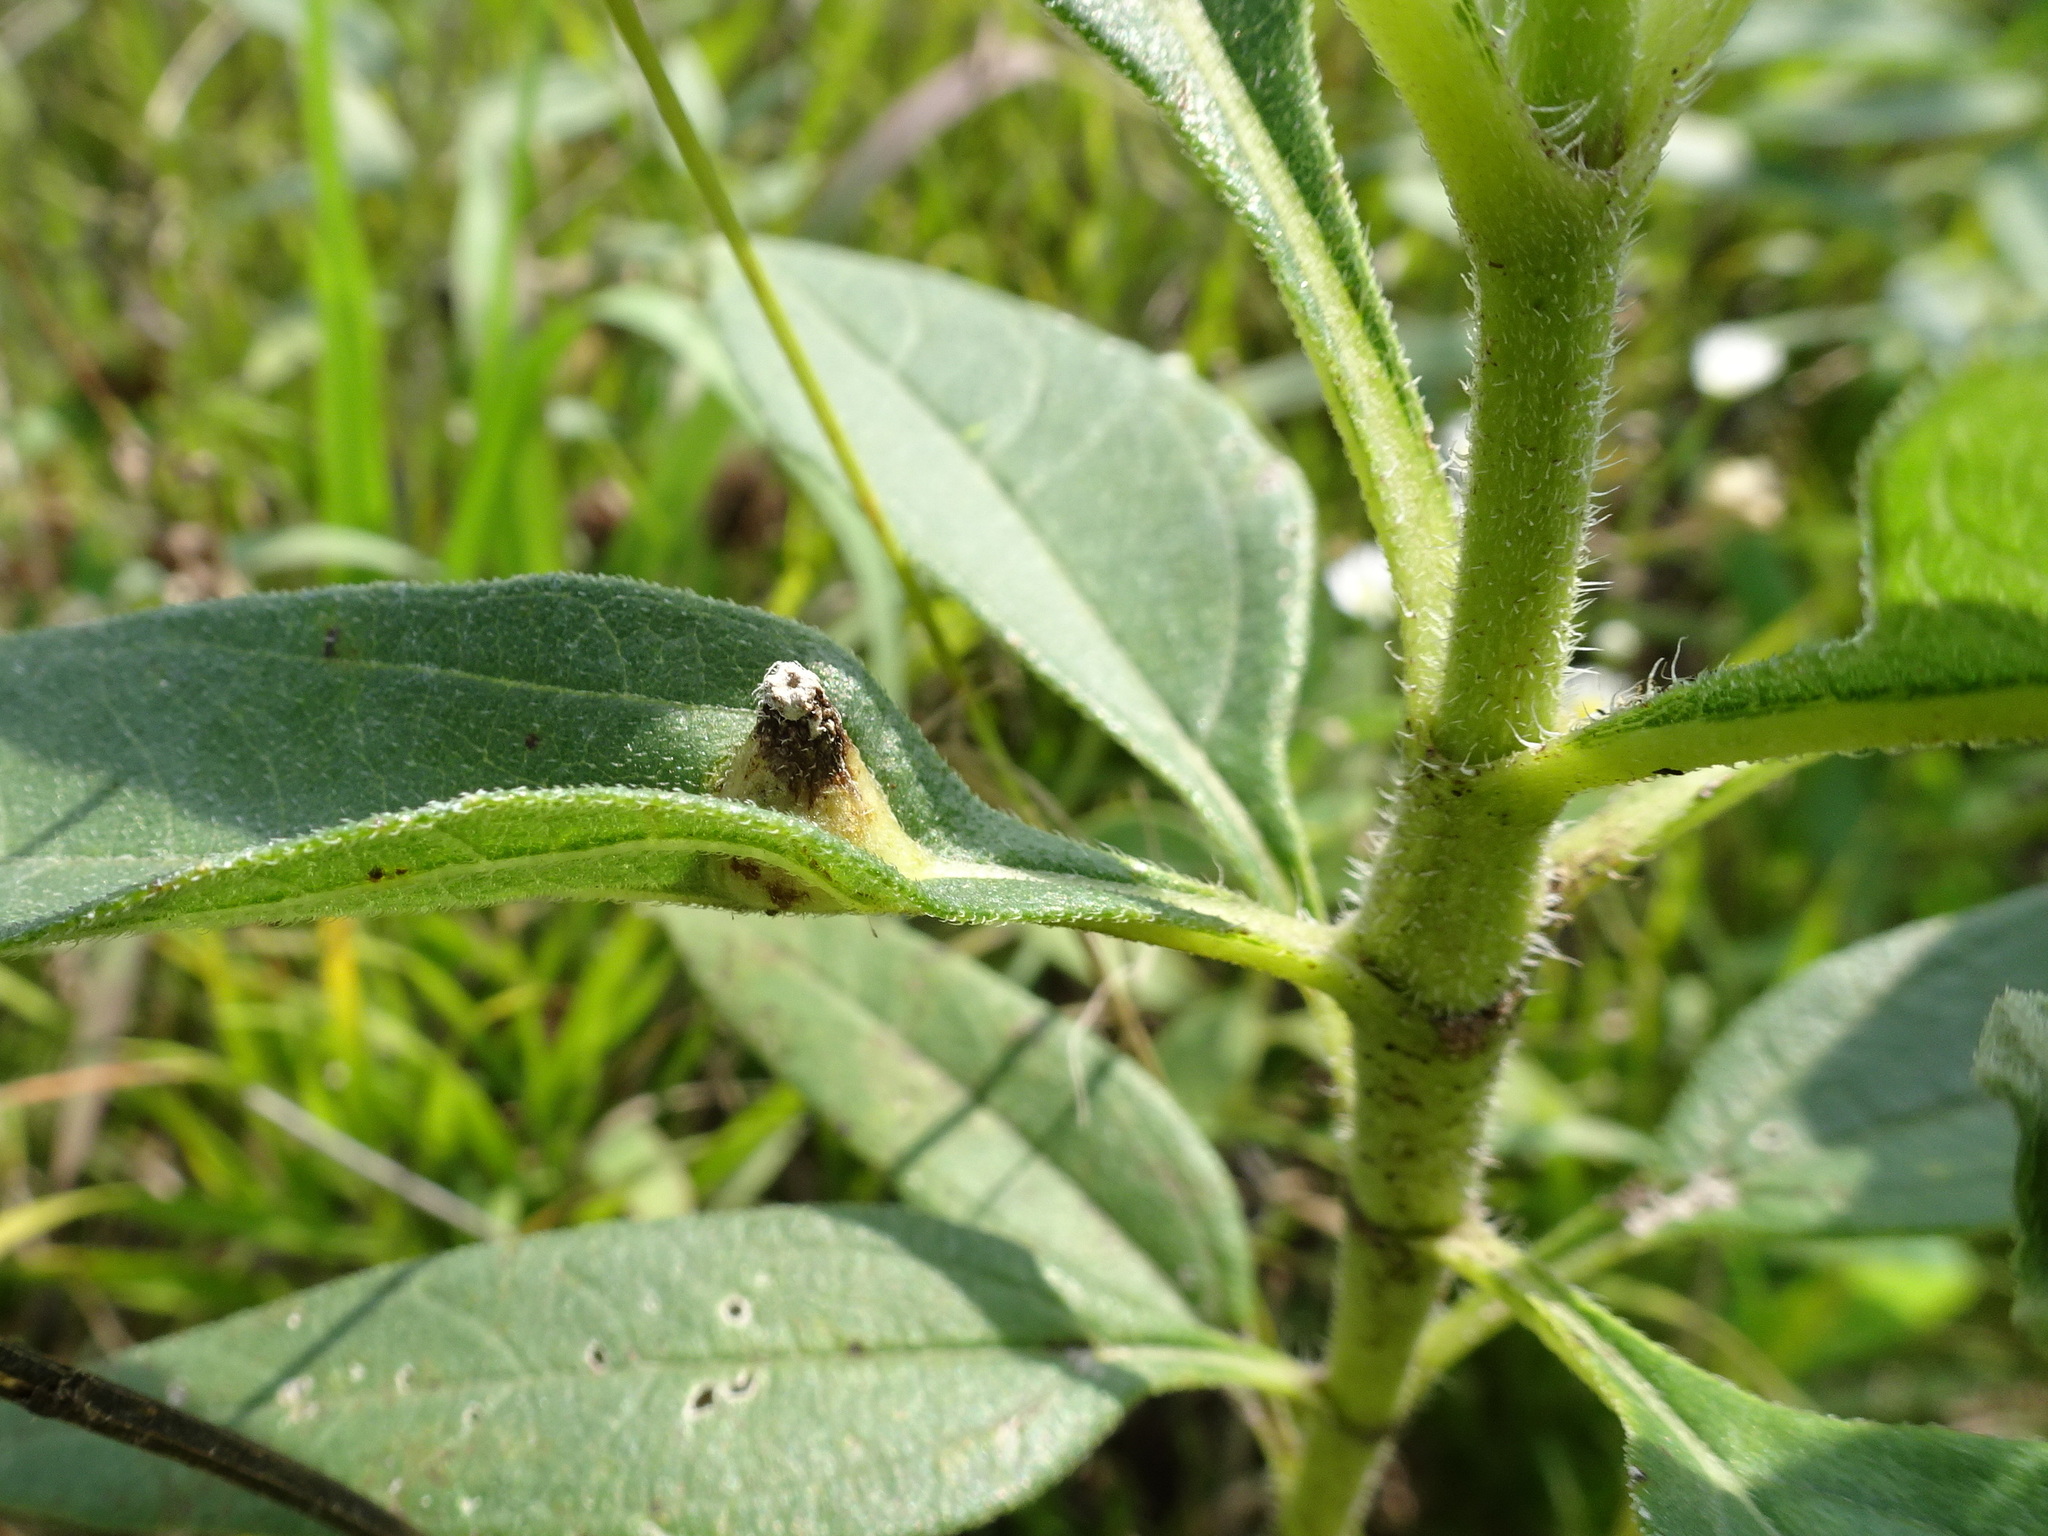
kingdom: Animalia
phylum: Arthropoda
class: Insecta
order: Diptera
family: Cecidomyiidae
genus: Pilodiplosis
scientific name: Pilodiplosis helianthibulla
